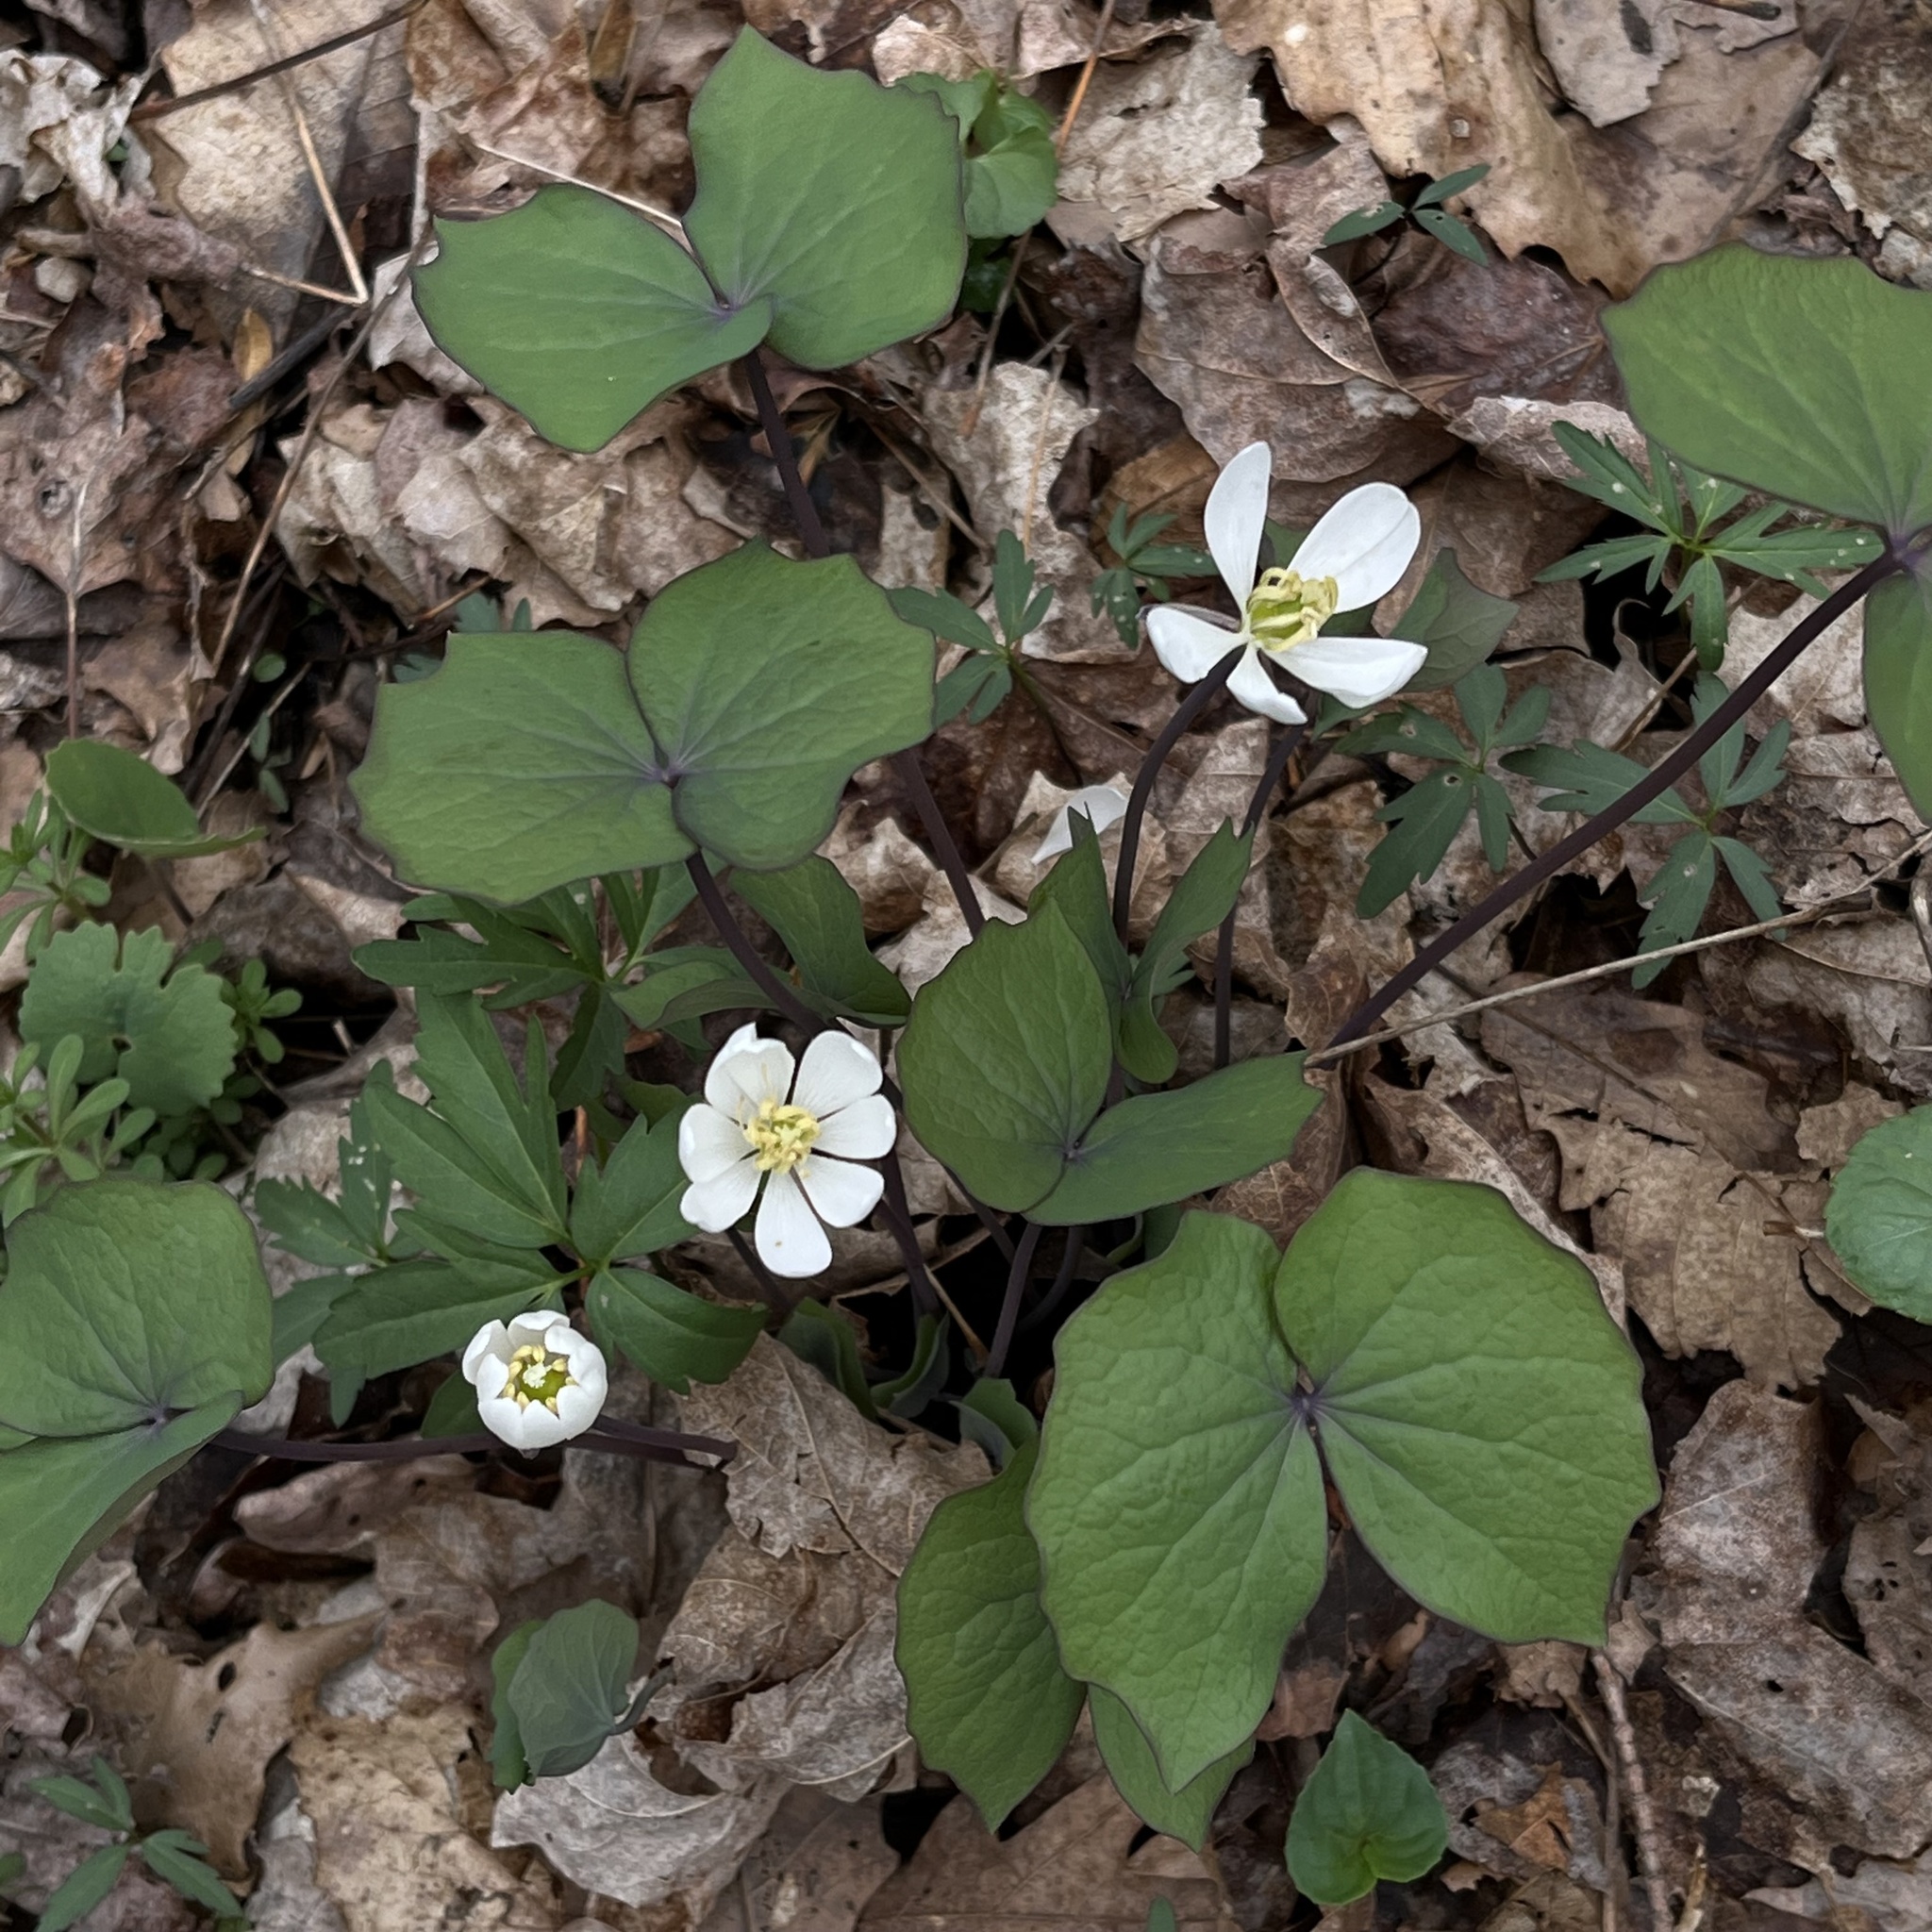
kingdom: Plantae
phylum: Tracheophyta
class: Magnoliopsida
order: Ranunculales
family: Berberidaceae
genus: Jeffersonia
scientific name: Jeffersonia diphylla
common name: Rheumatism-root
